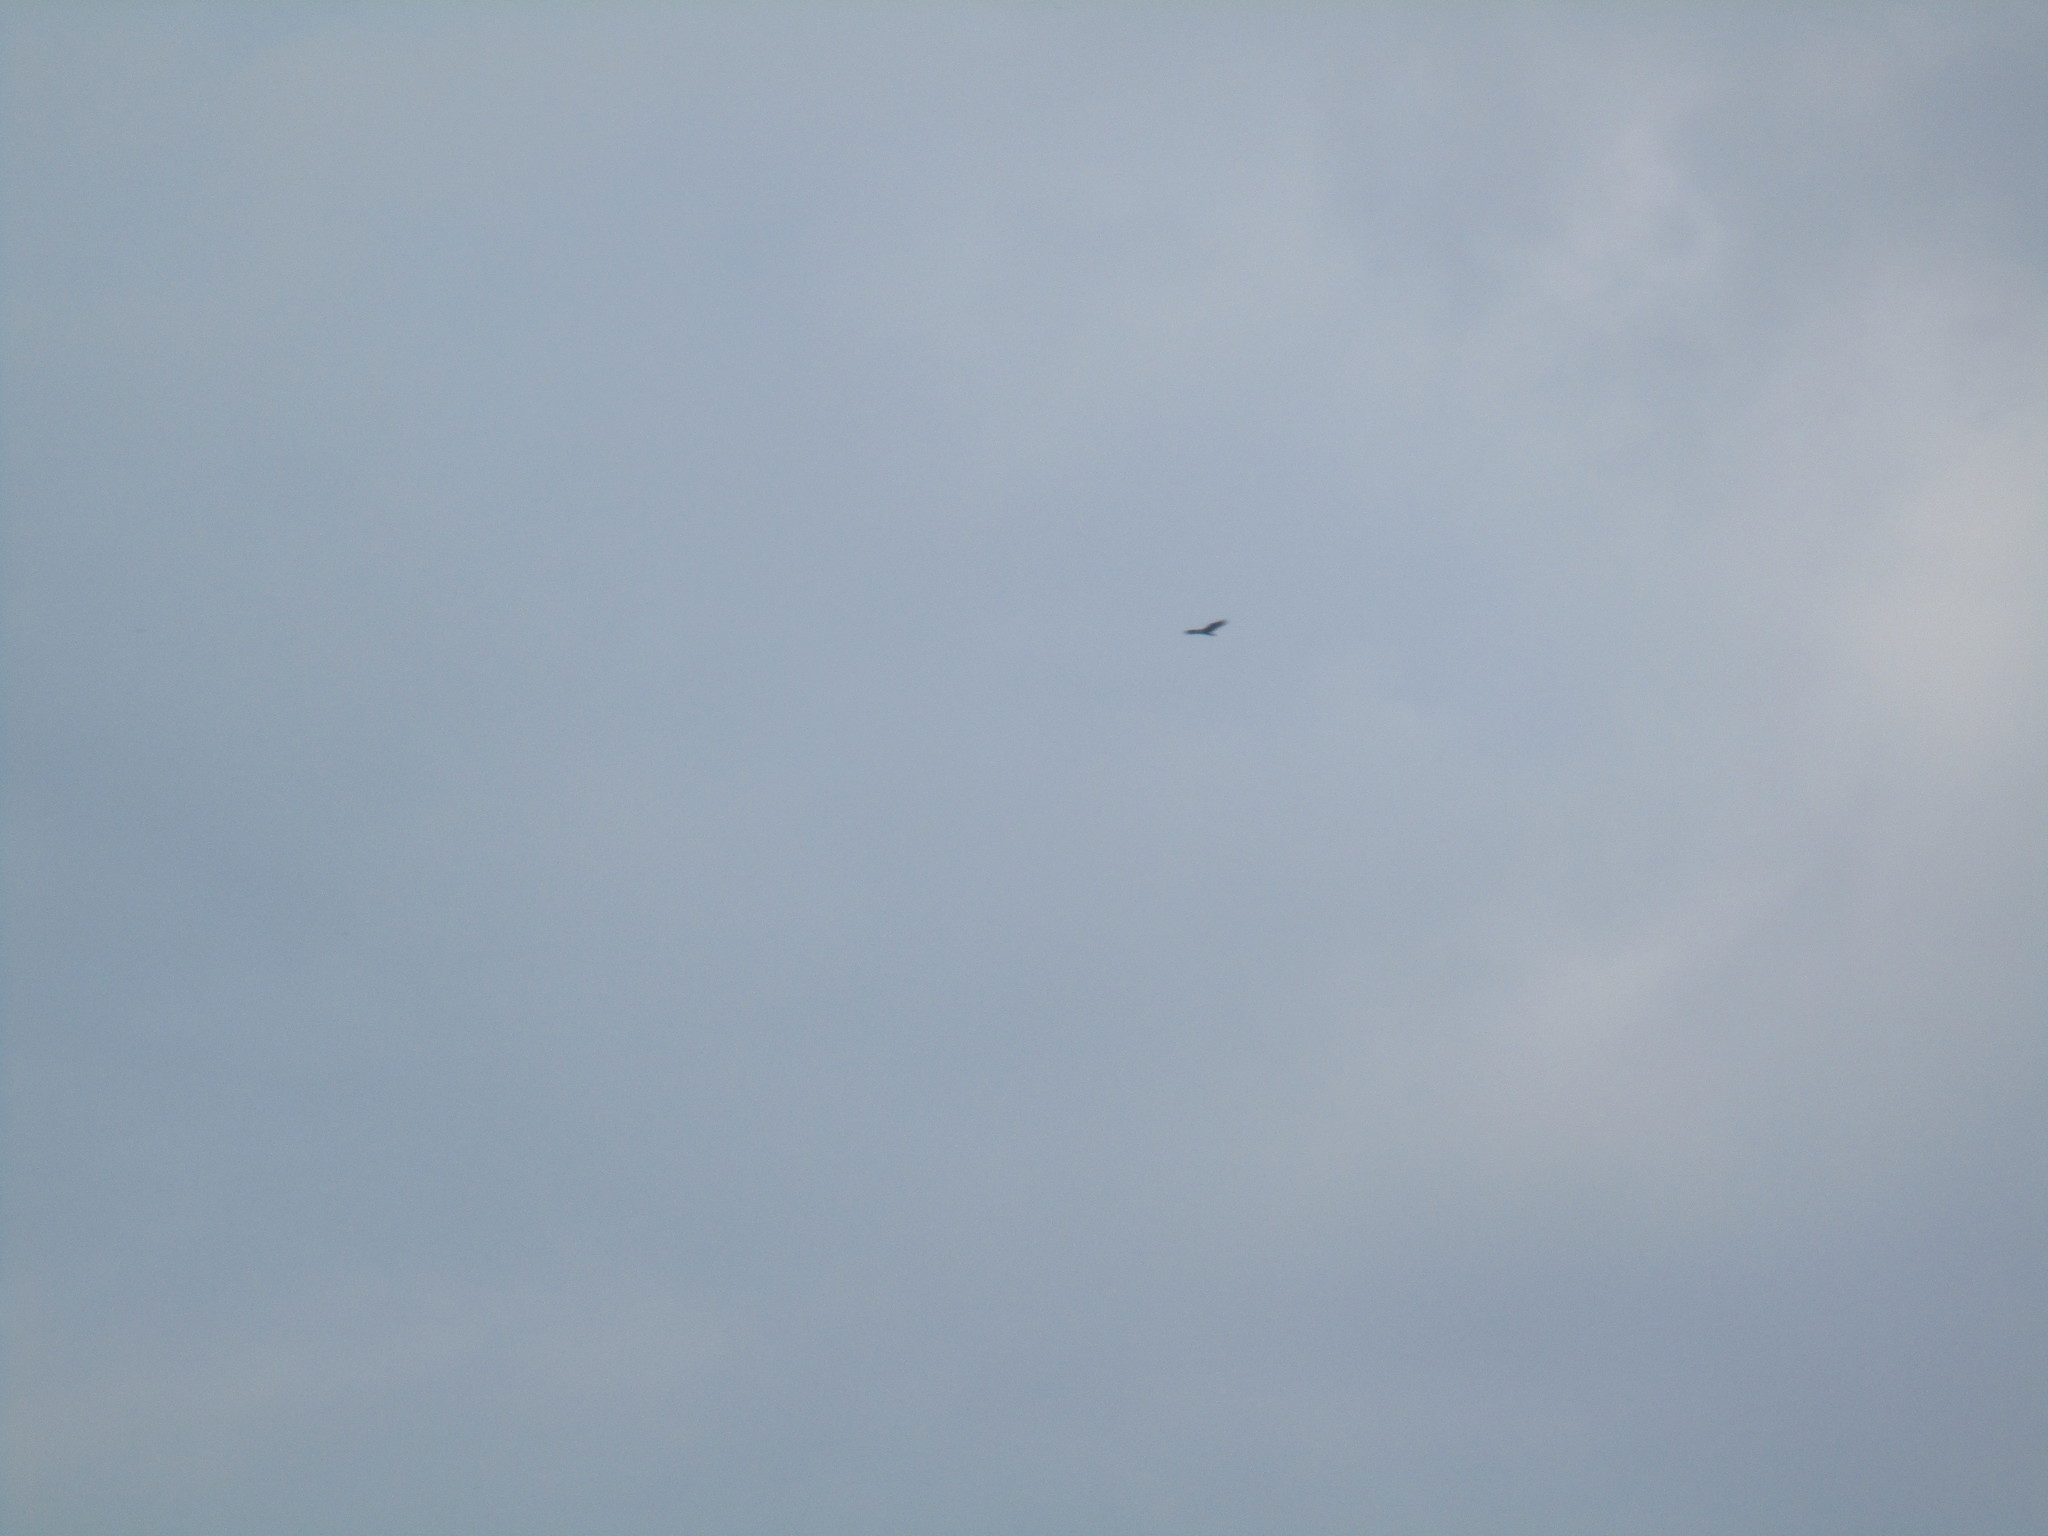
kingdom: Animalia
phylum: Chordata
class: Aves
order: Accipitriformes
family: Cathartidae
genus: Cathartes
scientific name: Cathartes aura
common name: Turkey vulture
